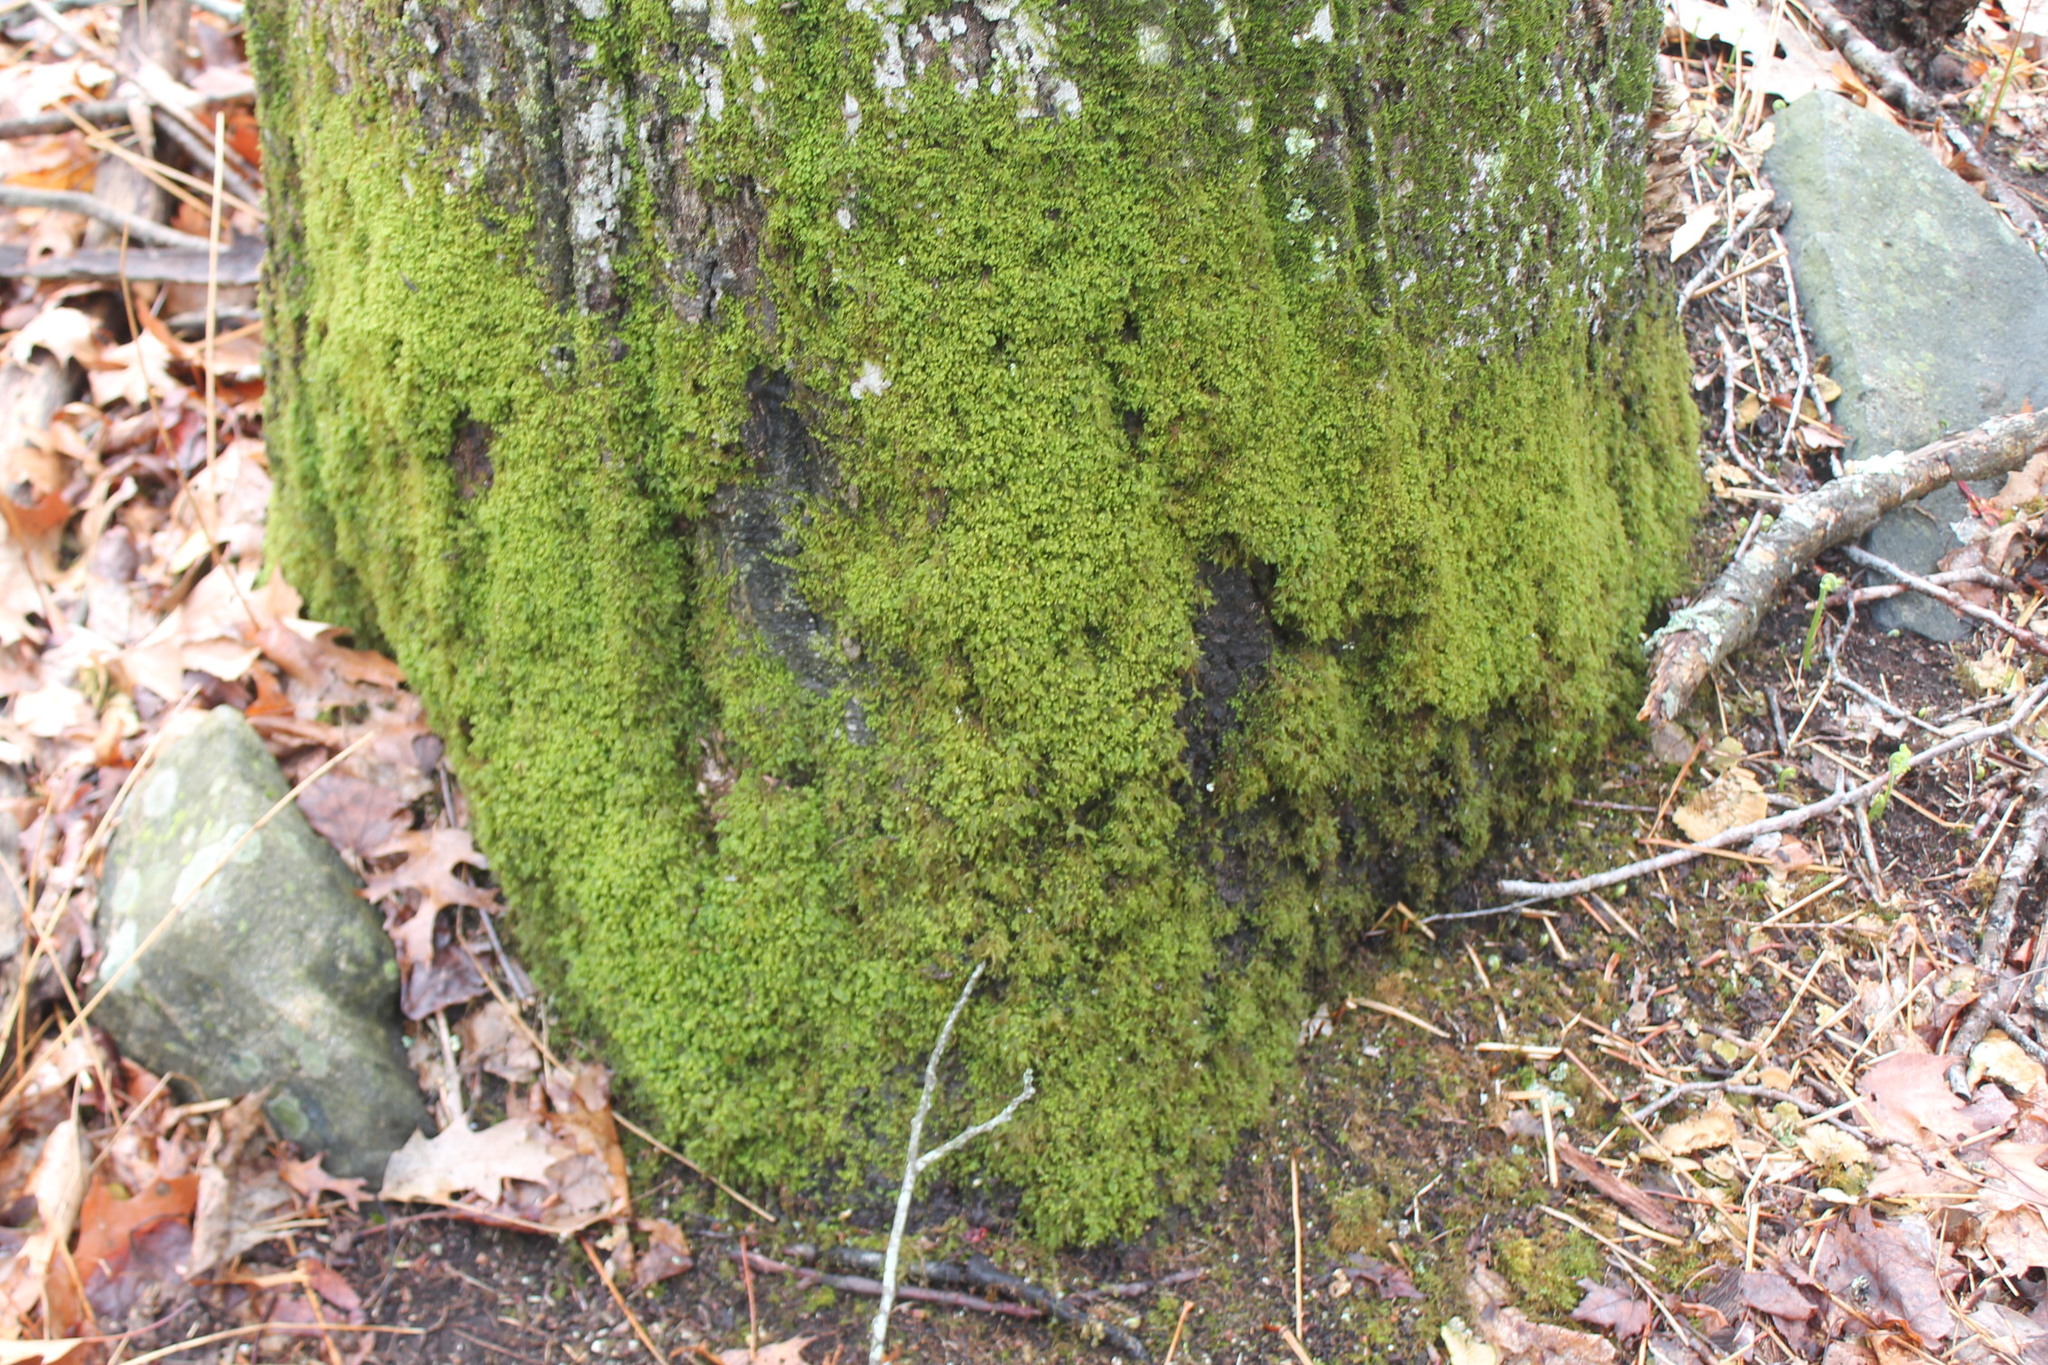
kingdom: Plantae
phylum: Bryophyta
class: Bryopsida
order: Hypnales
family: Neckeraceae
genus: Pseudanomodon
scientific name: Pseudanomodon attenuatus
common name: Tree-skirt moss
